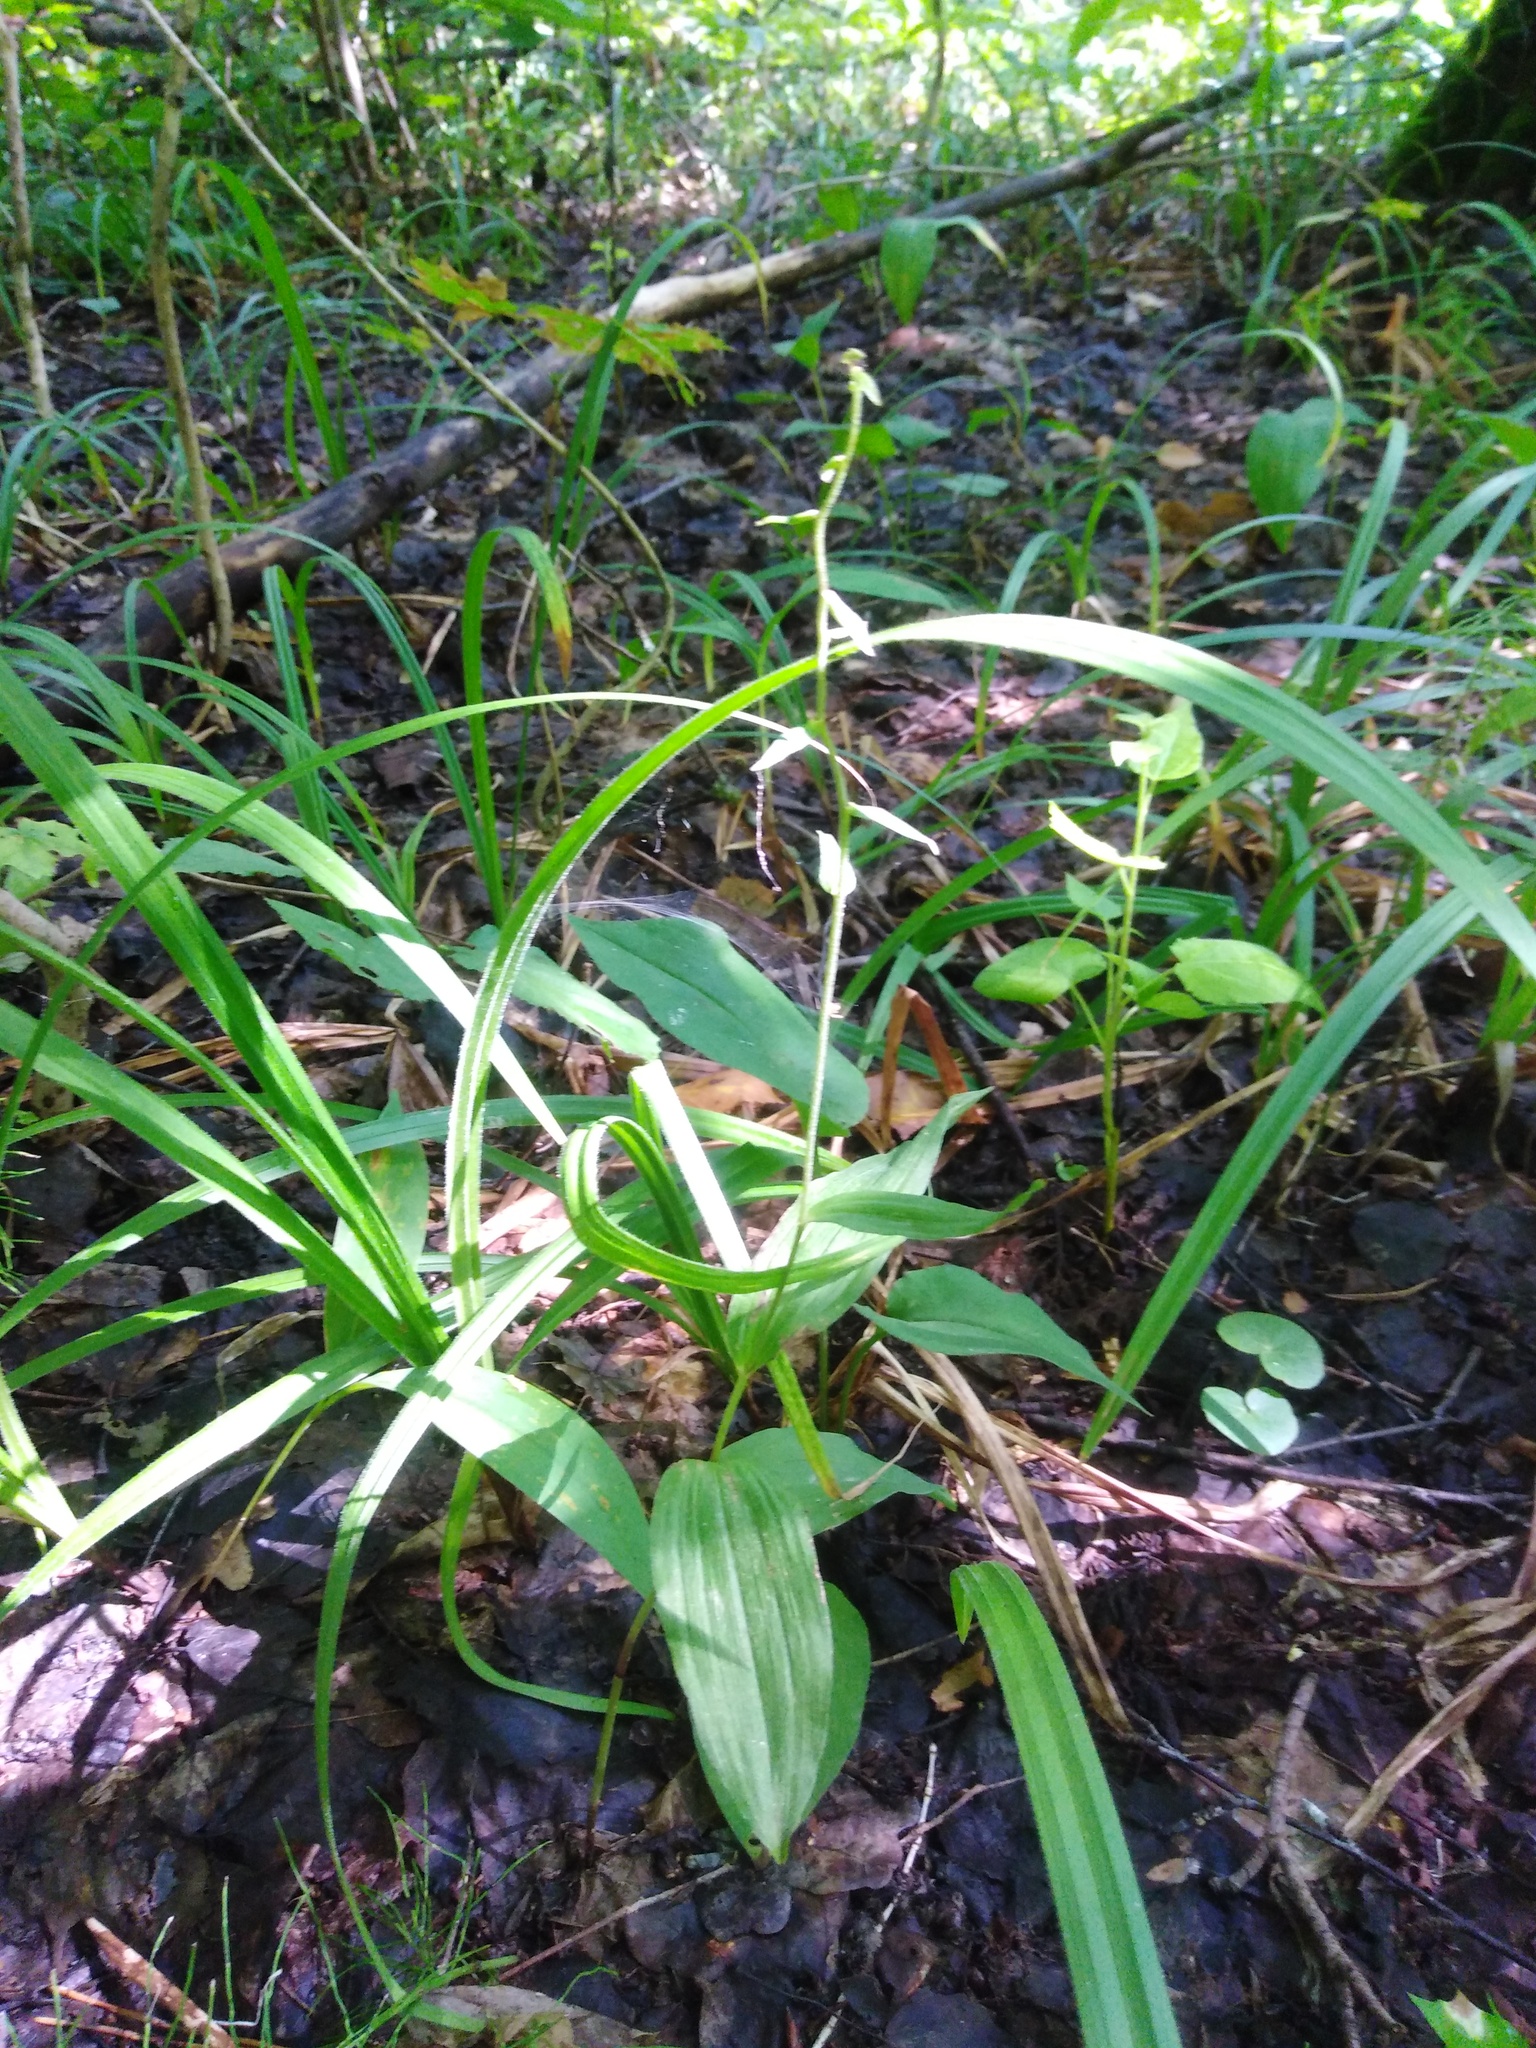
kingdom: Plantae
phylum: Tracheophyta
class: Liliopsida
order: Asparagales
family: Orchidaceae
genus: Epipactis
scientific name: Epipactis helleborine
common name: Broad-leaved helleborine
